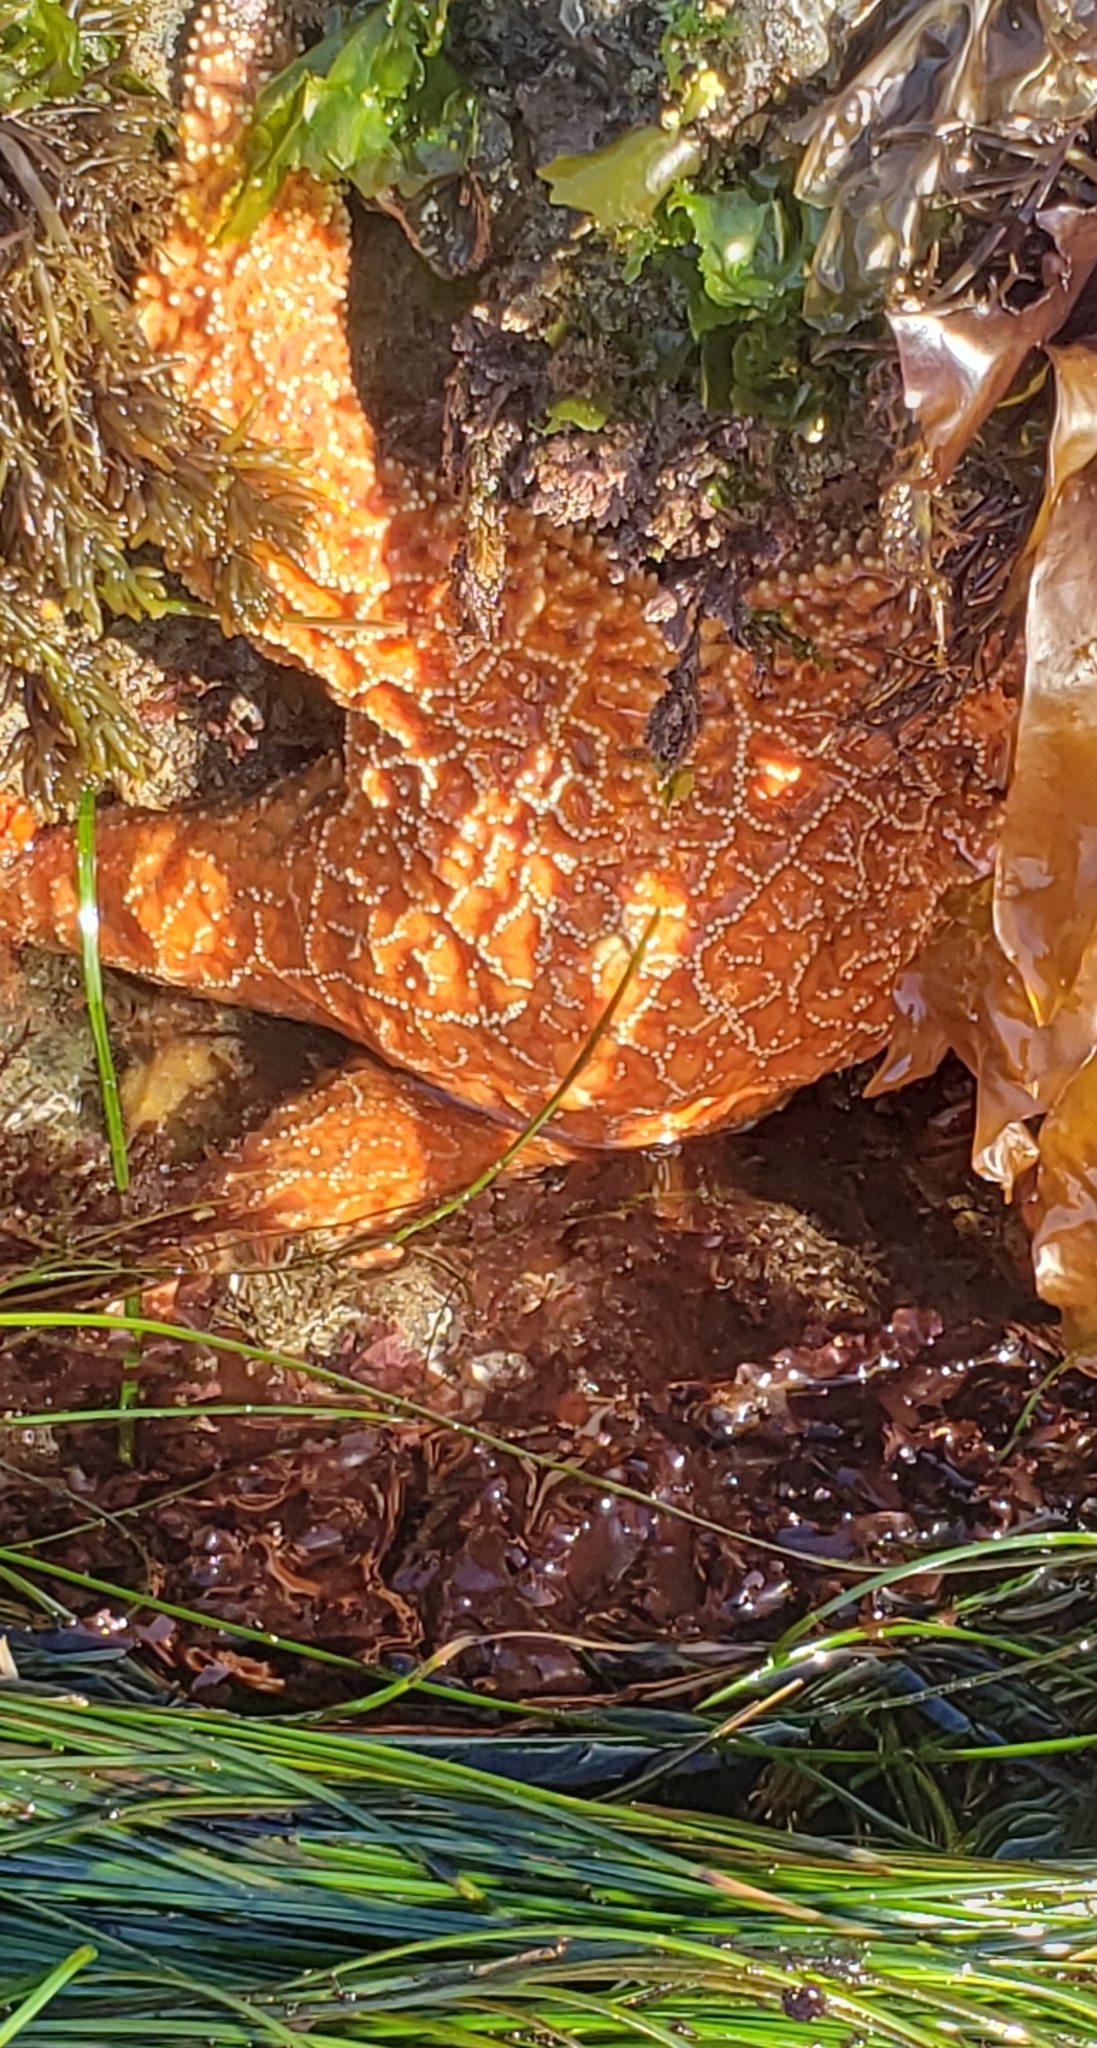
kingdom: Animalia
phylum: Echinodermata
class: Asteroidea
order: Forcipulatida
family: Asteriidae
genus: Pisaster
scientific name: Pisaster ochraceus
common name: Ochre stars
